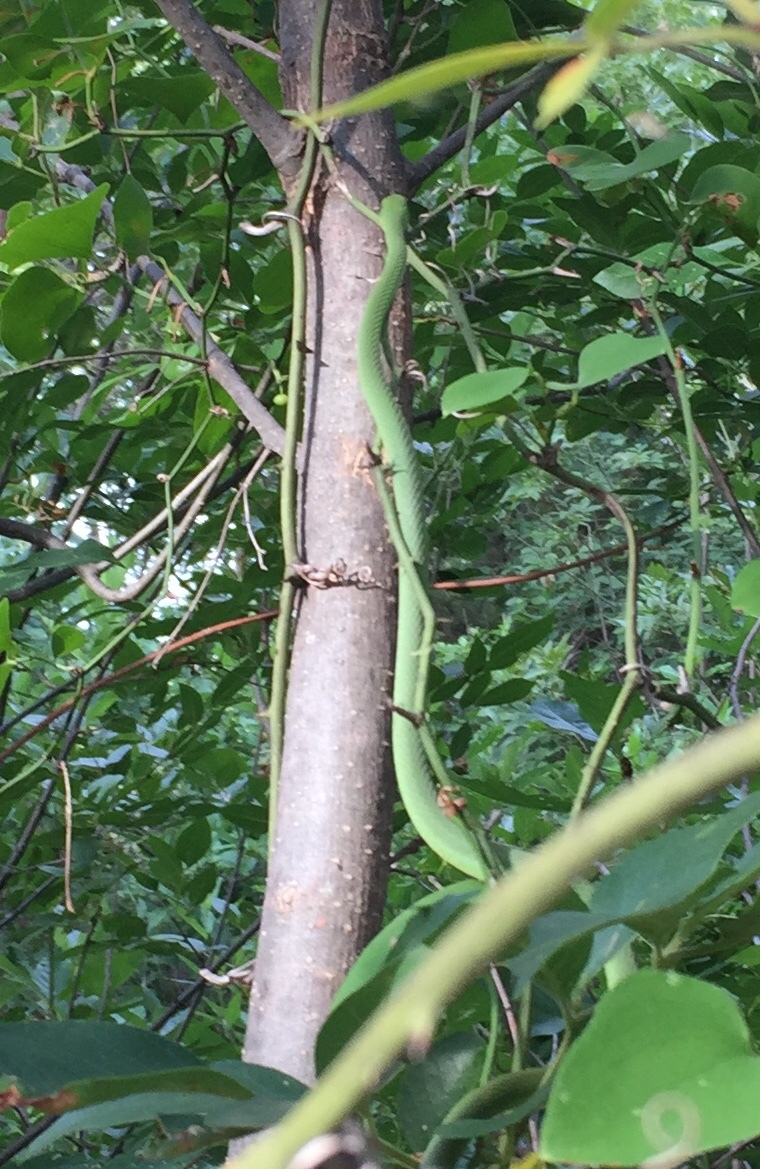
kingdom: Animalia
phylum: Chordata
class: Squamata
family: Colubridae
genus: Opheodrys
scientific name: Opheodrys aestivus
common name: Rough greensnake
